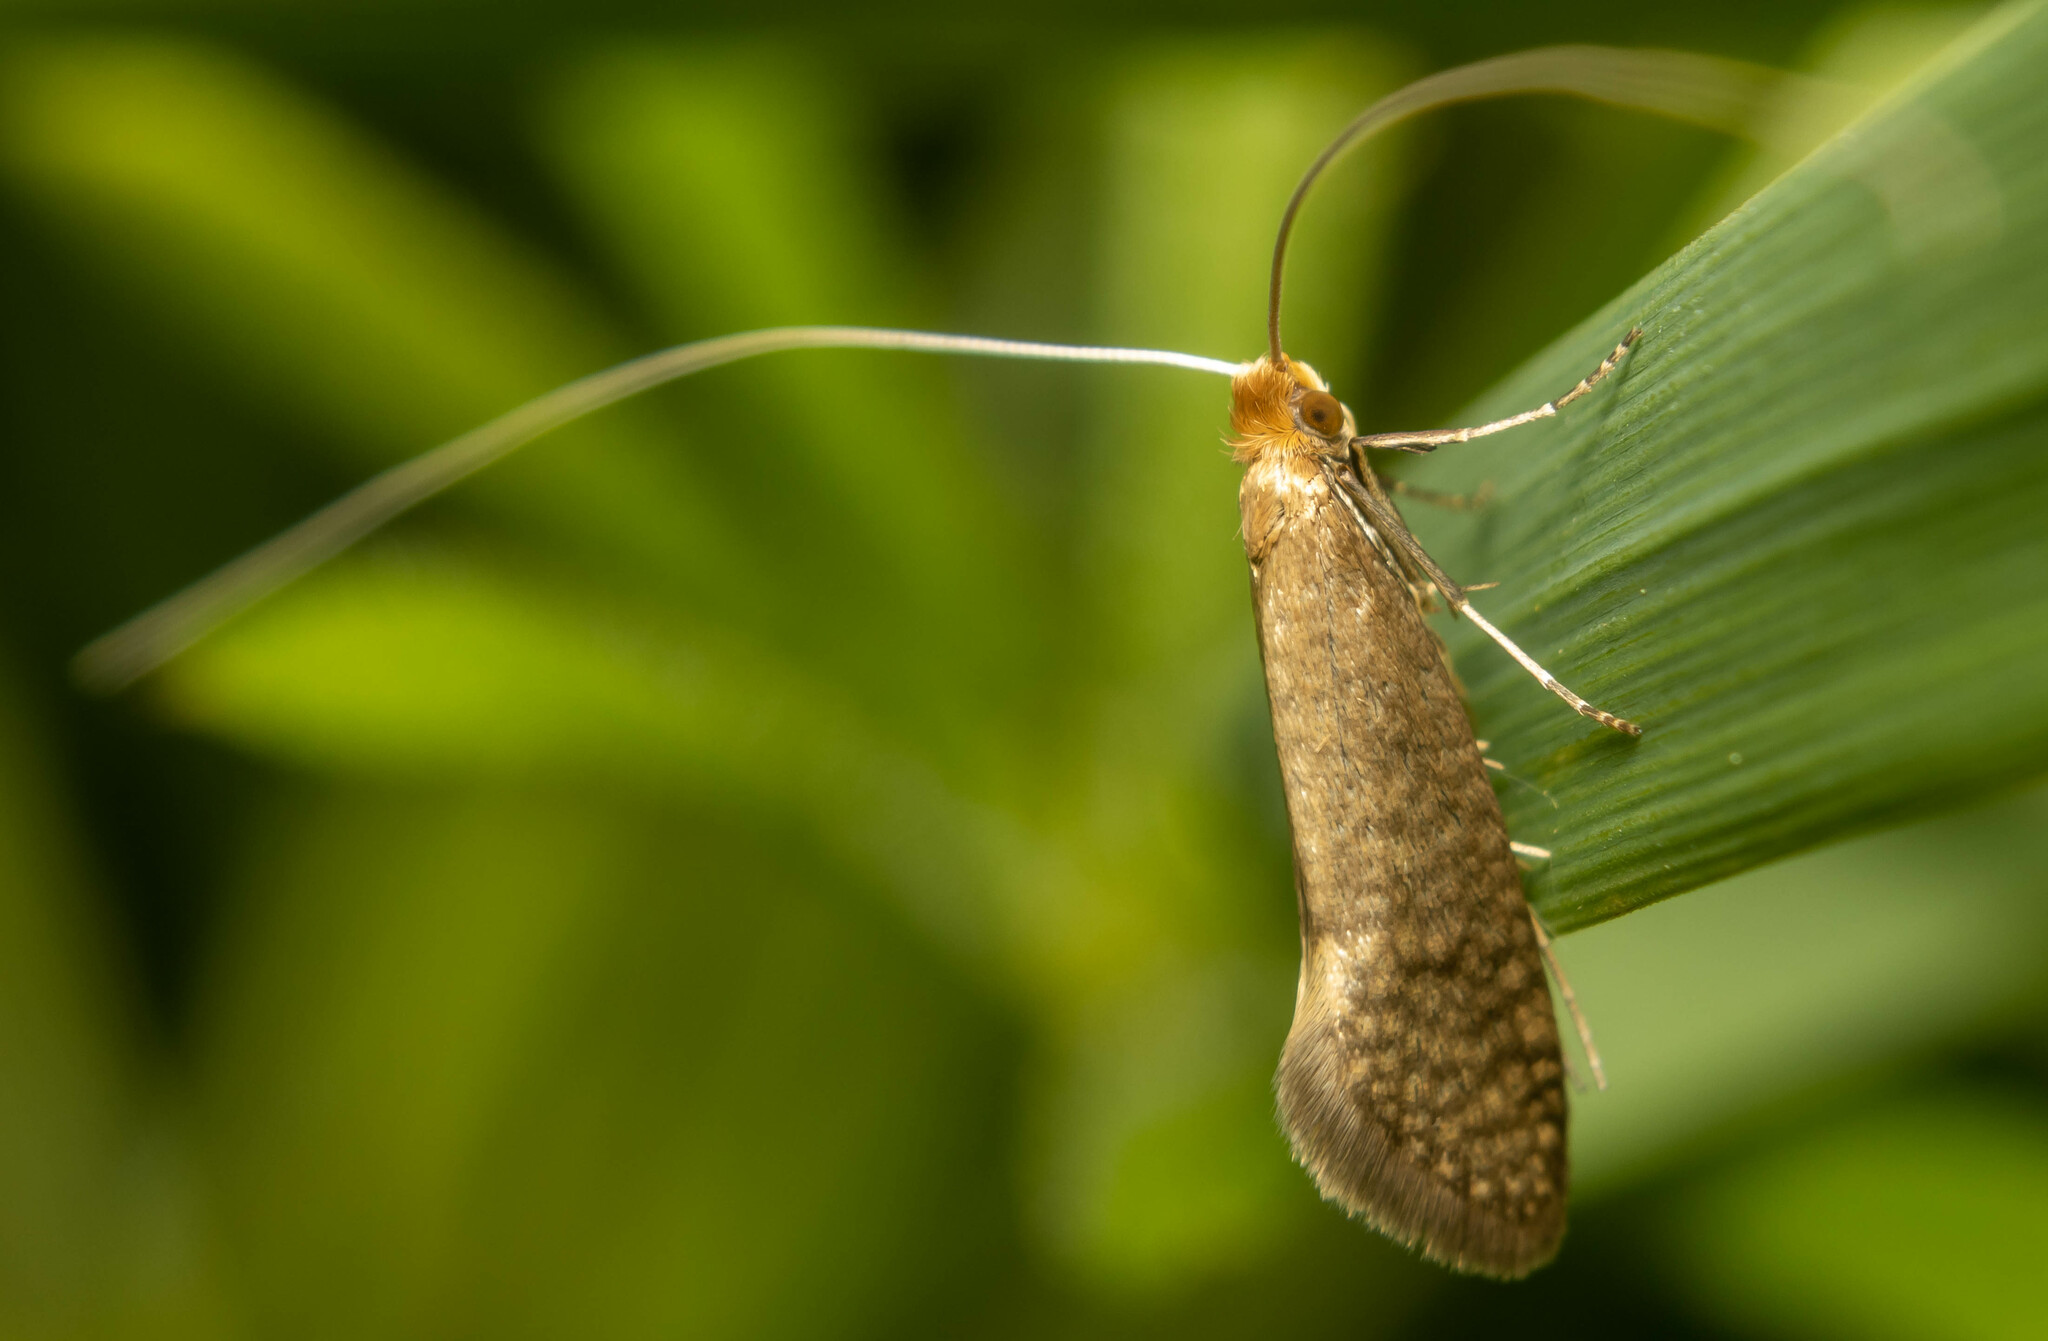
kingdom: Animalia
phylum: Arthropoda
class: Insecta
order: Lepidoptera
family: Adelidae
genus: Nematopogon
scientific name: Nematopogon swammerdamella
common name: Large long-horn
